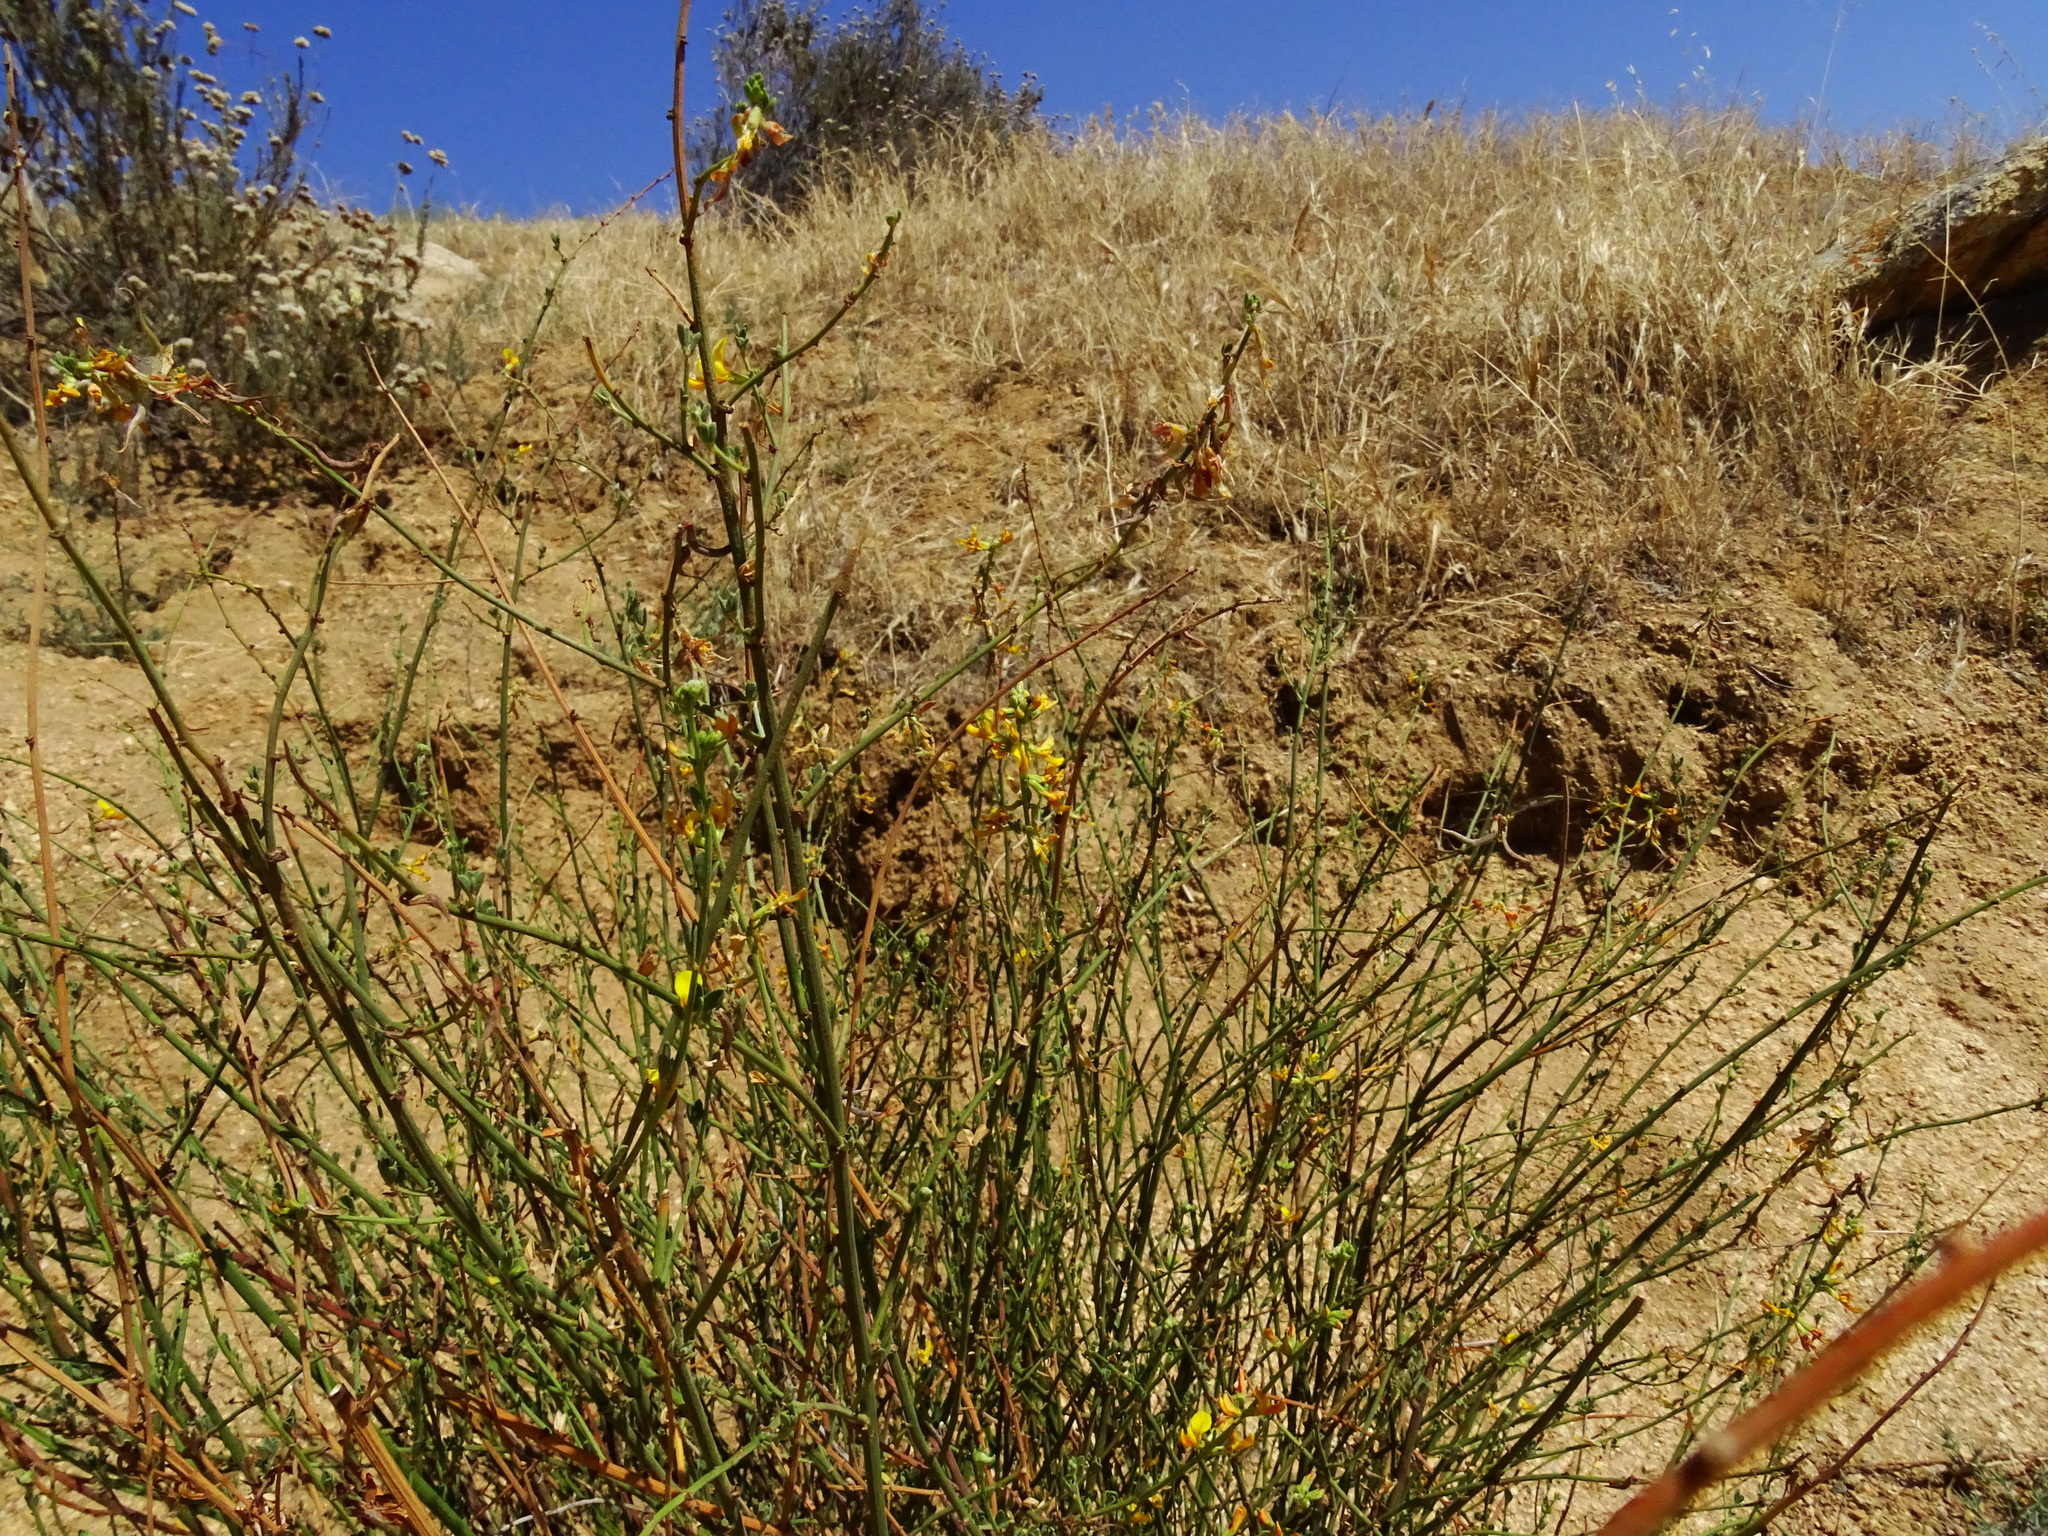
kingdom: Plantae
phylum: Tracheophyta
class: Magnoliopsida
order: Fabales
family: Fabaceae
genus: Acmispon
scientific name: Acmispon glaber
